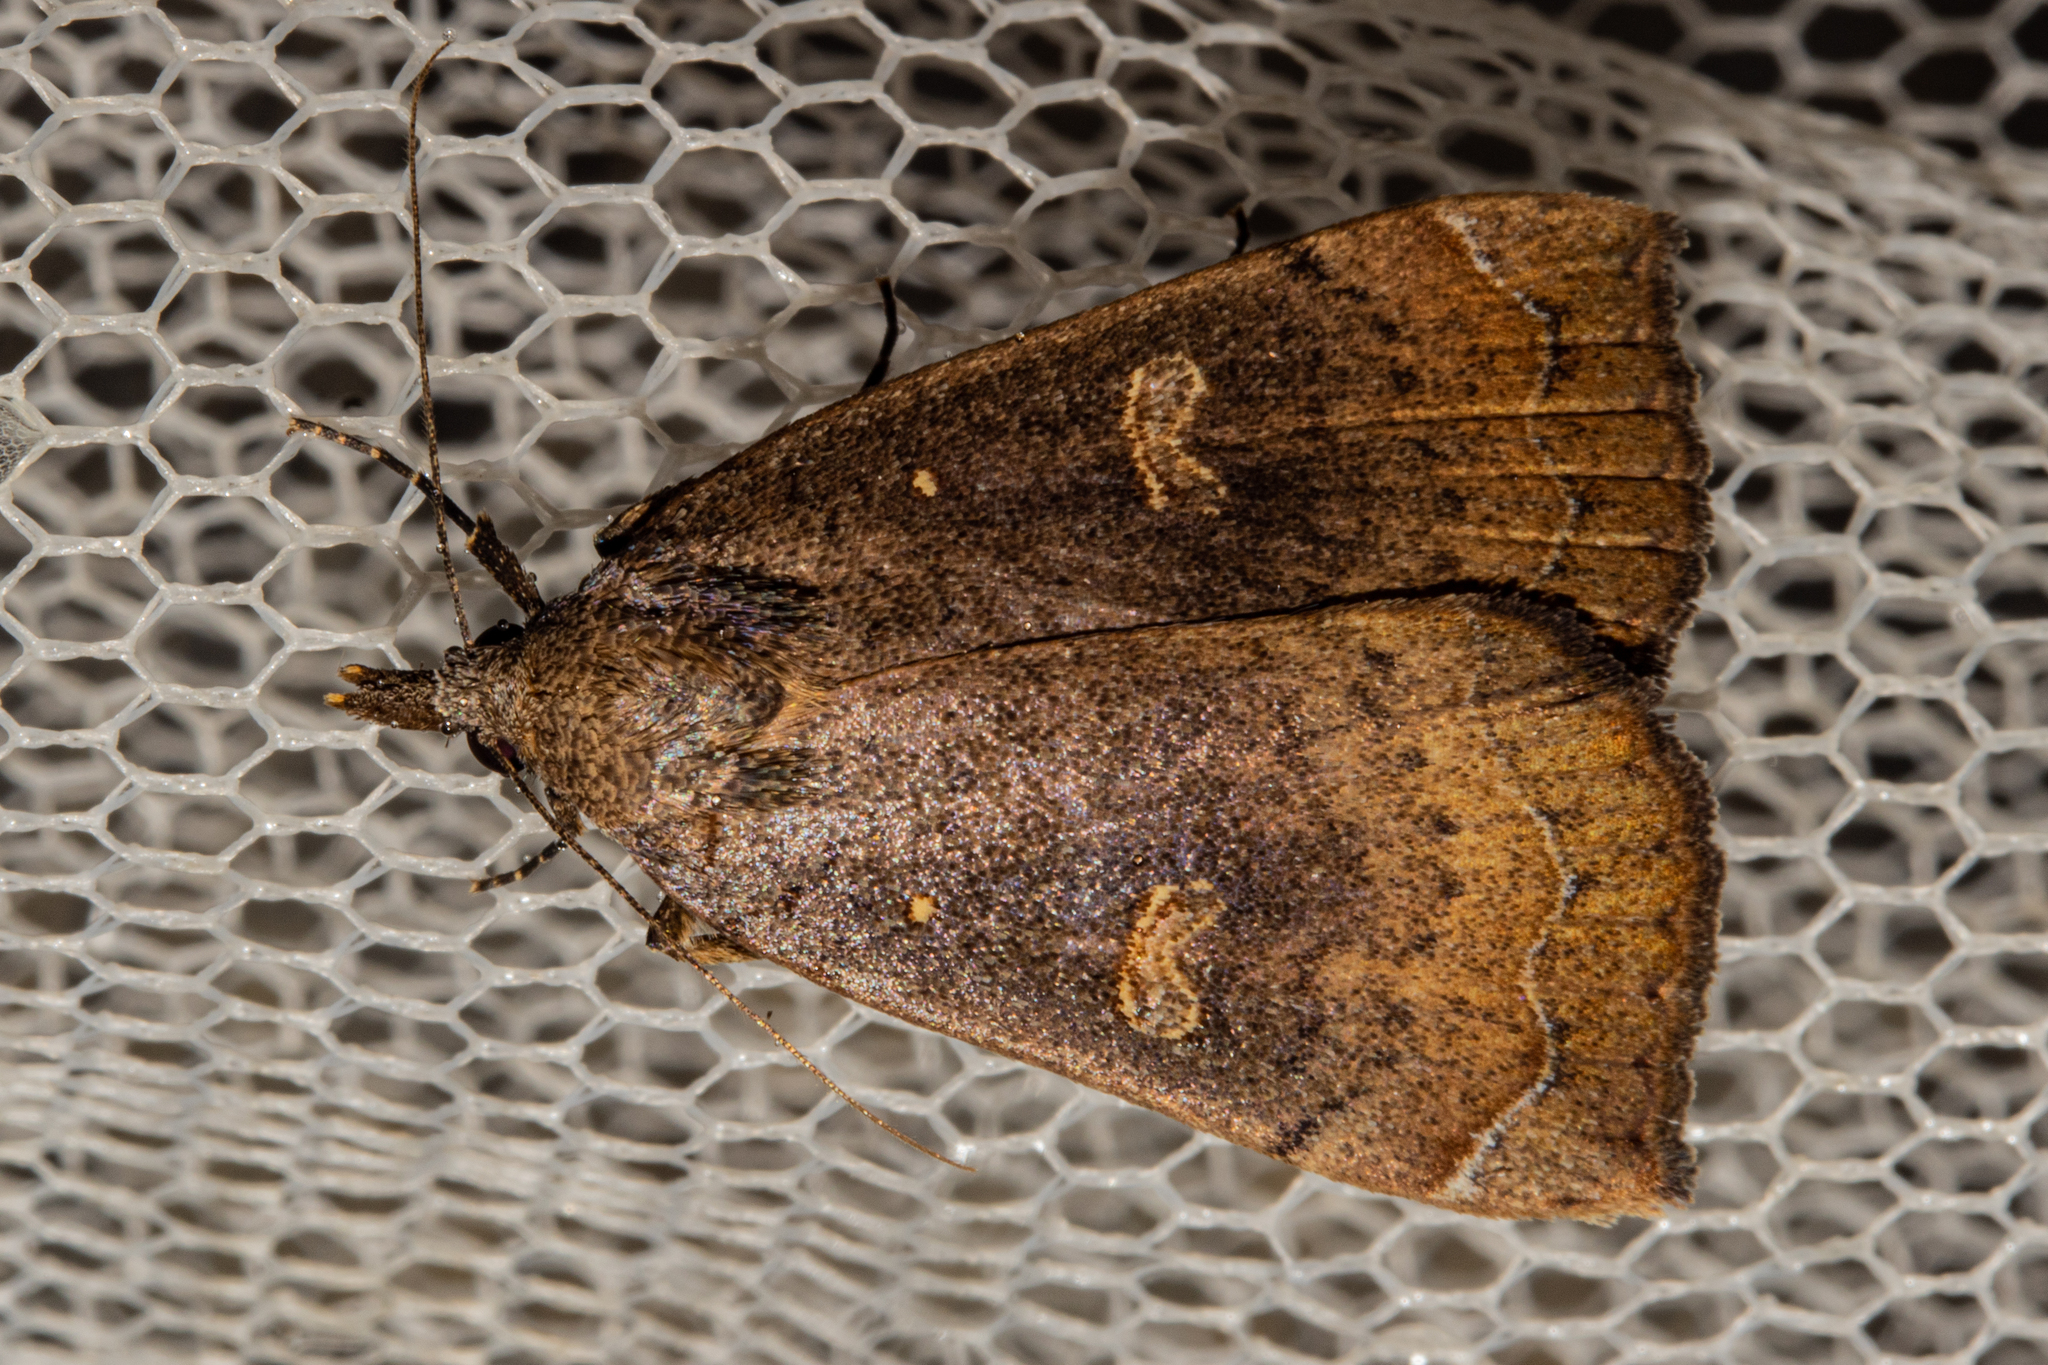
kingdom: Animalia
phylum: Arthropoda
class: Insecta
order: Lepidoptera
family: Erebidae
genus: Rhapsa
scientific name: Rhapsa scotosialis
